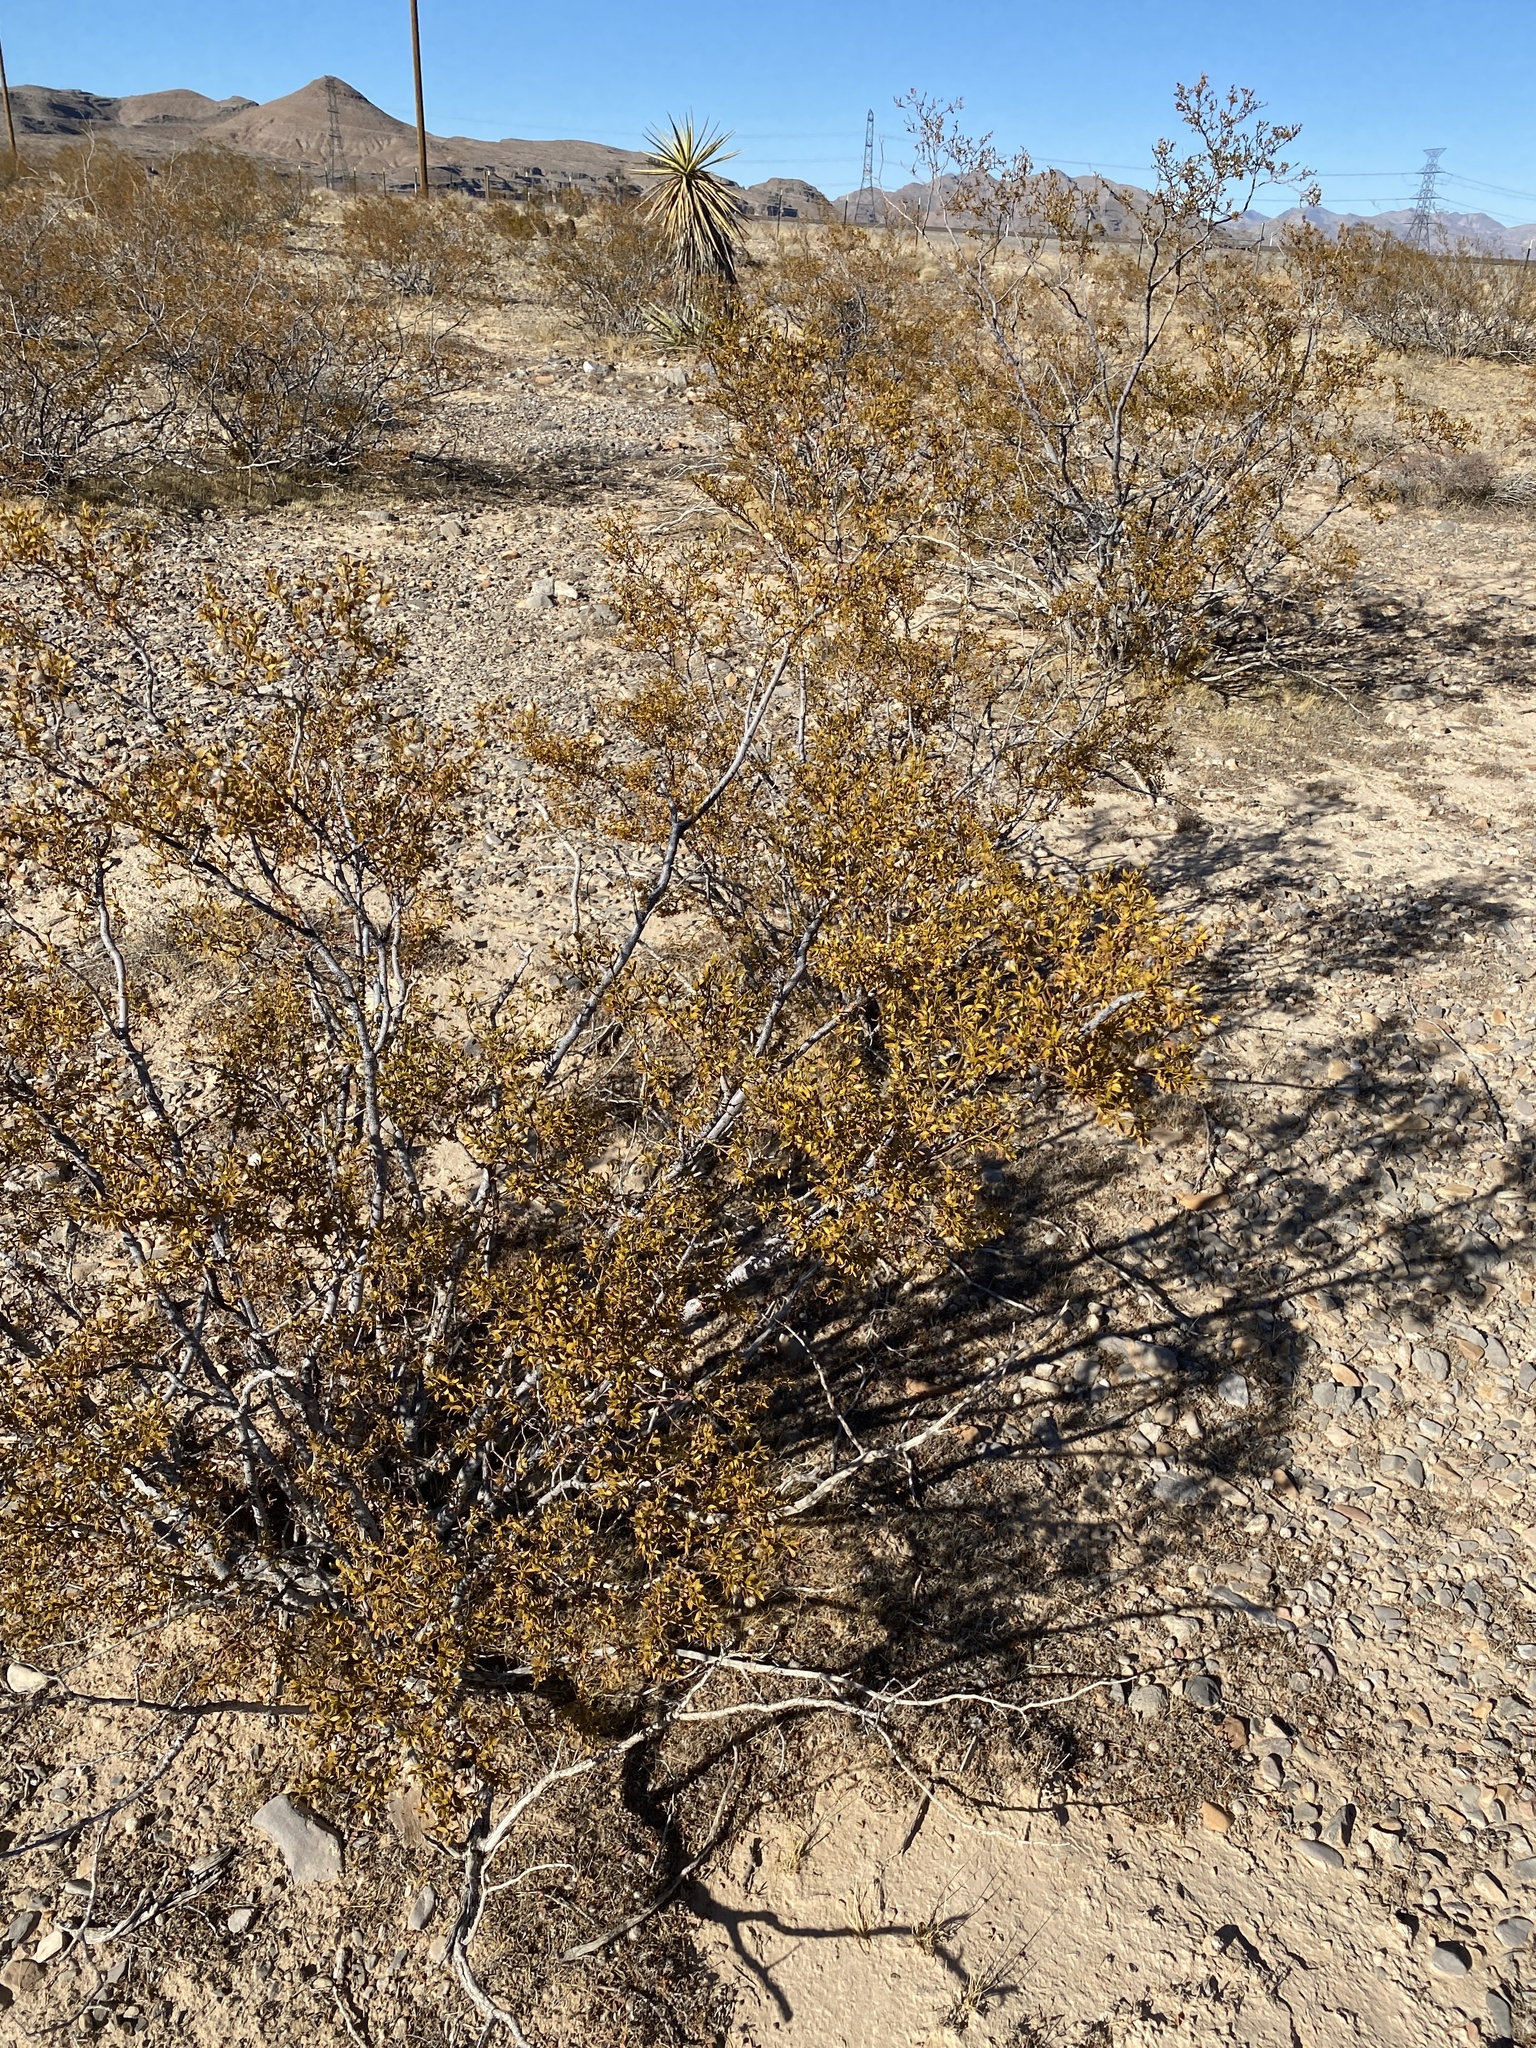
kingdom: Plantae
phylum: Tracheophyta
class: Magnoliopsida
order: Zygophyllales
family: Zygophyllaceae
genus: Larrea
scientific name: Larrea tridentata
